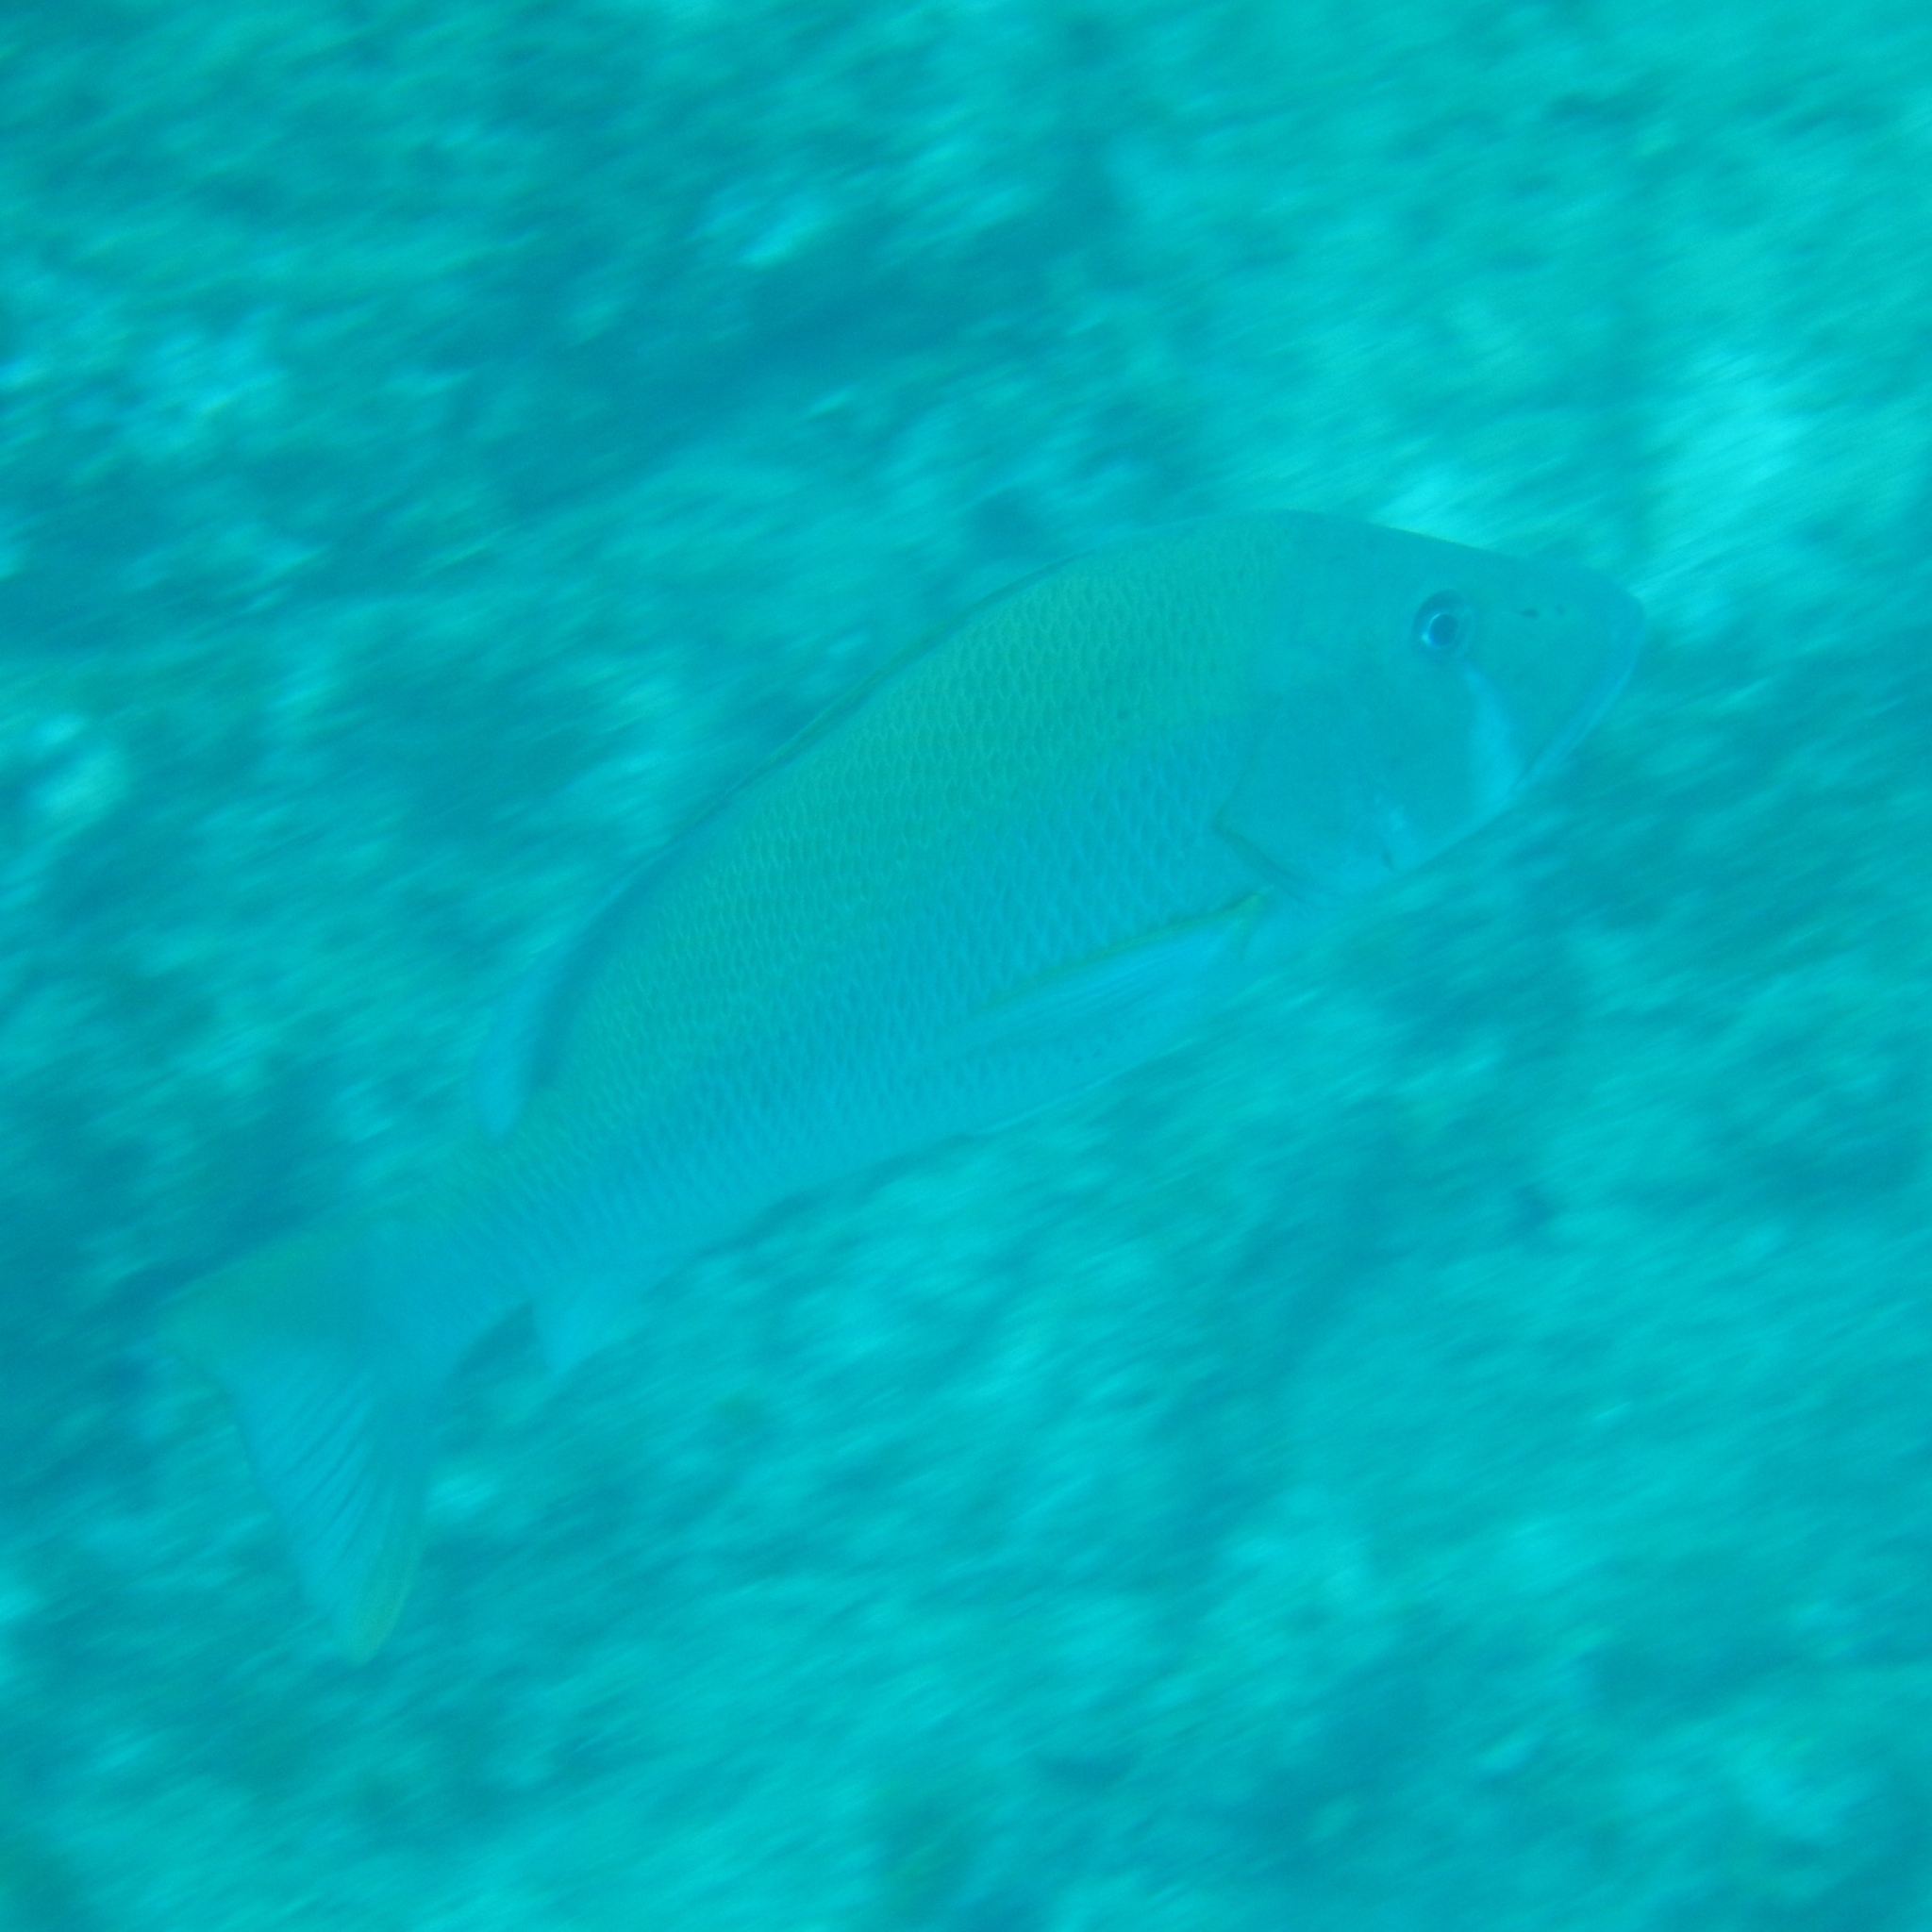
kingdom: Animalia
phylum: Chordata
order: Perciformes
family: Lutjanidae
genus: Lutjanus
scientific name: Lutjanus jocu
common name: Dog snapper
